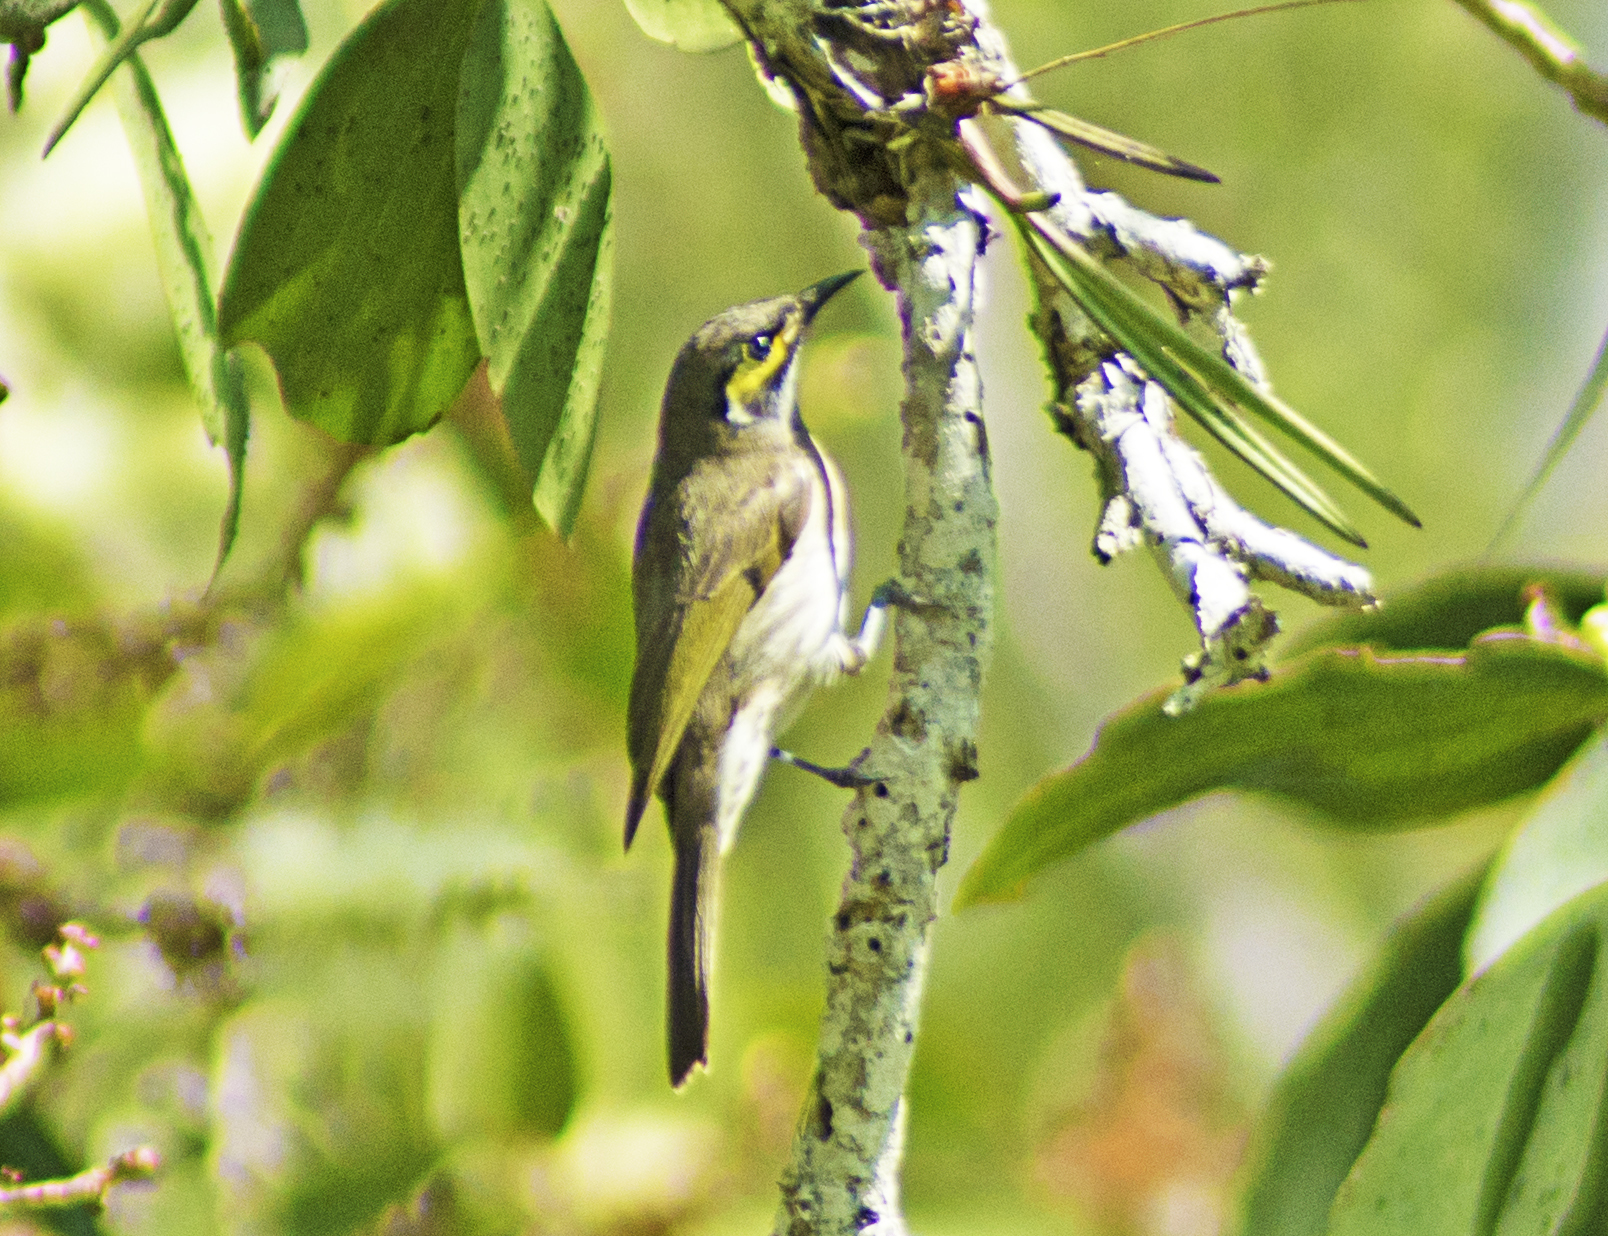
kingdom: Animalia
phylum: Chordata
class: Aves
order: Passeriformes
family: Meliphagidae
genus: Caligavis
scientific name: Caligavis chrysops
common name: Yellow-faced honeyeater
